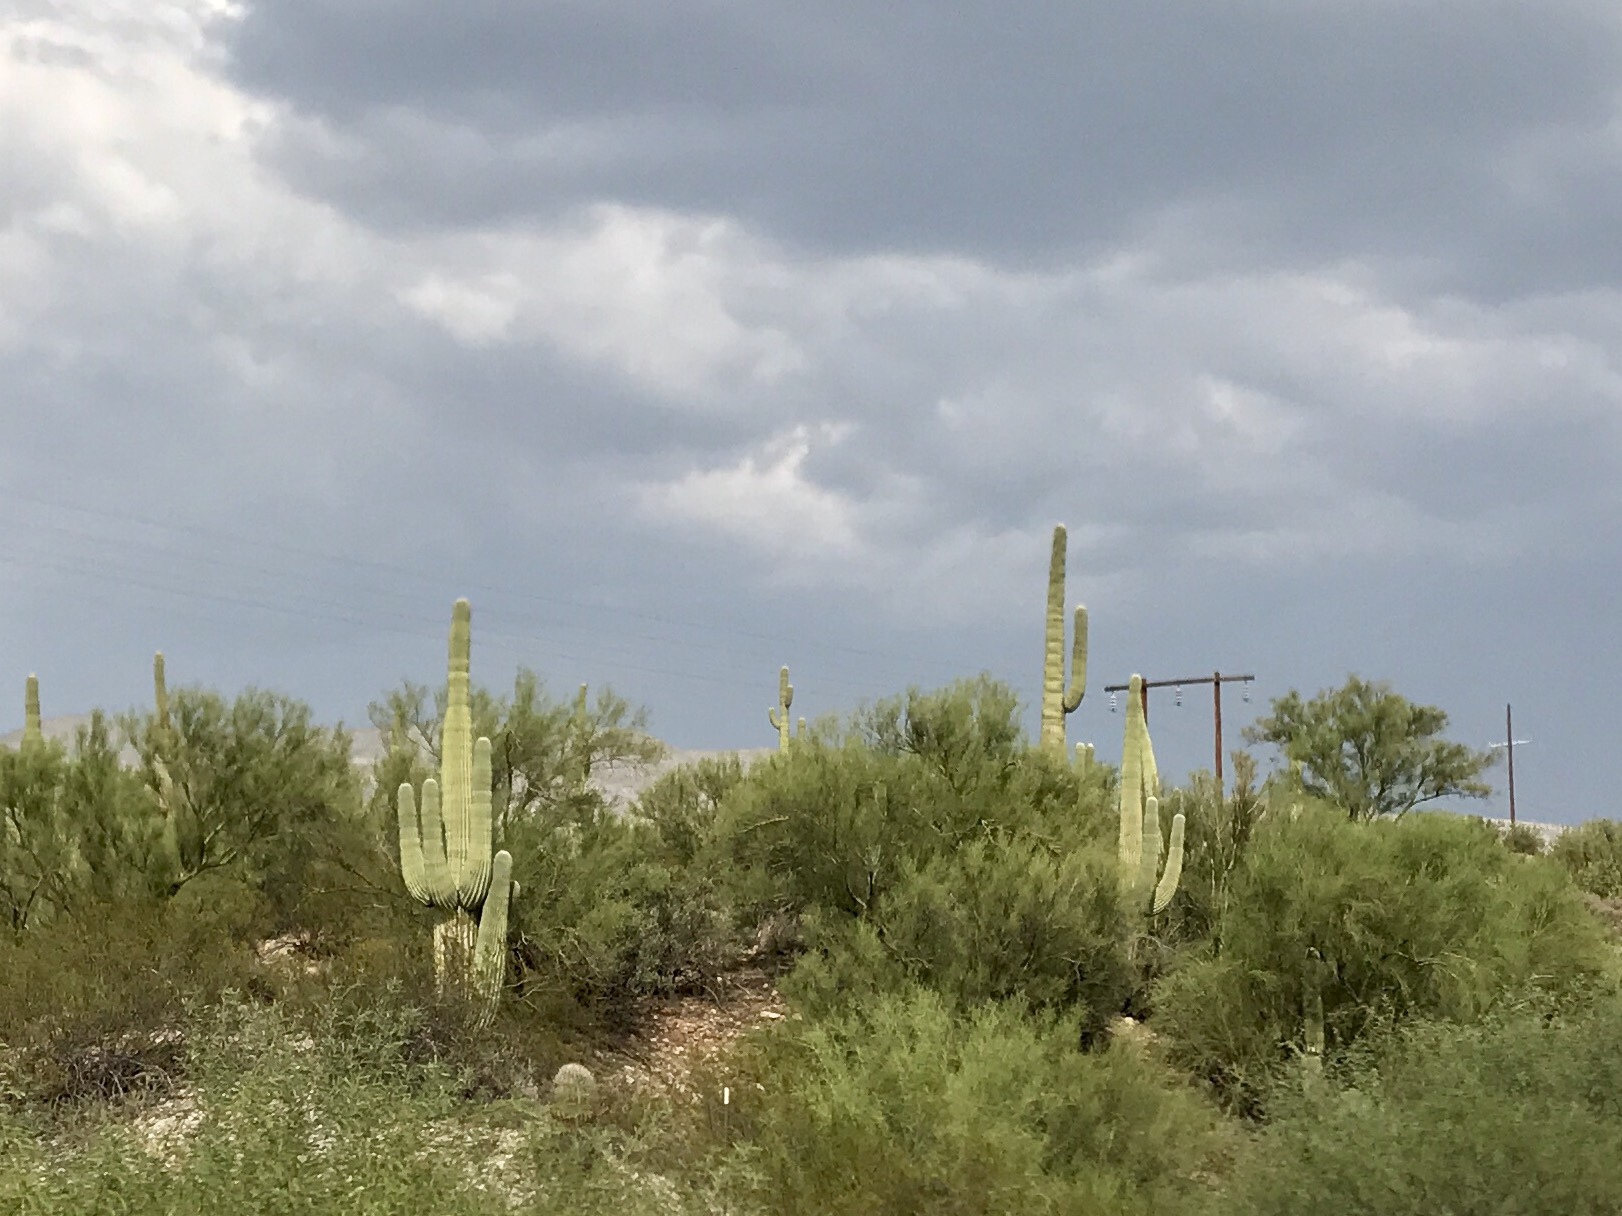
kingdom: Plantae
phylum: Tracheophyta
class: Magnoliopsida
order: Caryophyllales
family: Cactaceae
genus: Carnegiea
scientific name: Carnegiea gigantea
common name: Saguaro
